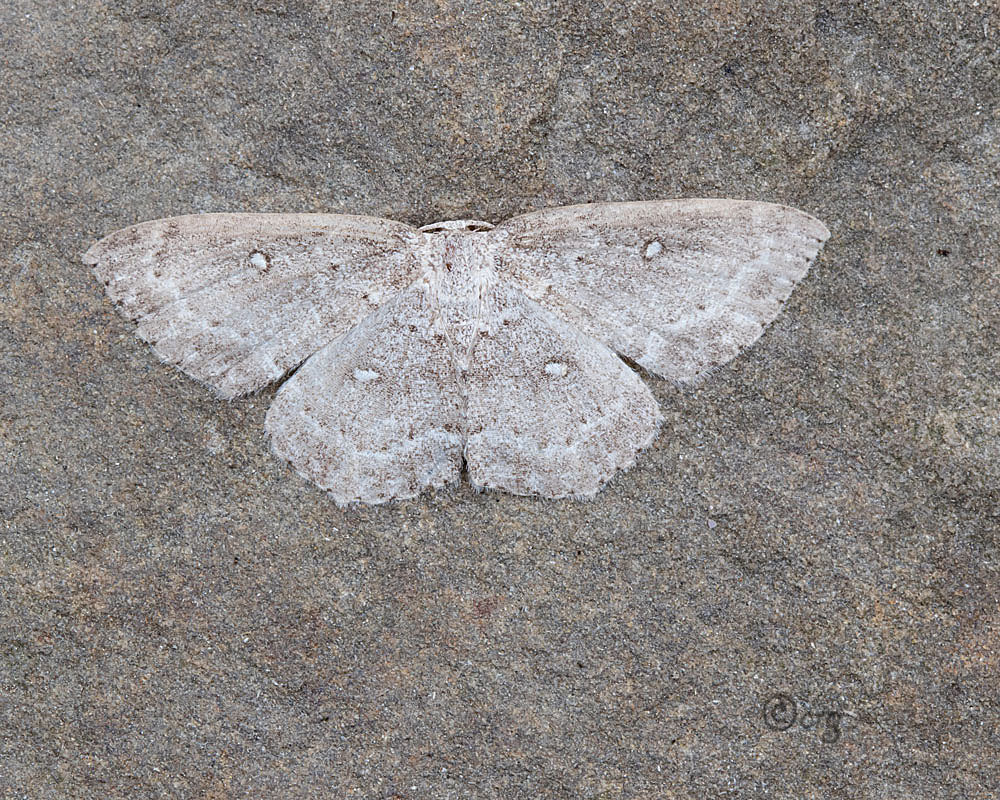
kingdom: Animalia
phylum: Arthropoda
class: Insecta
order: Lepidoptera
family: Geometridae
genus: Cyclophora
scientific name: Cyclophora pendulinaria
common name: Sweet fern geometer
